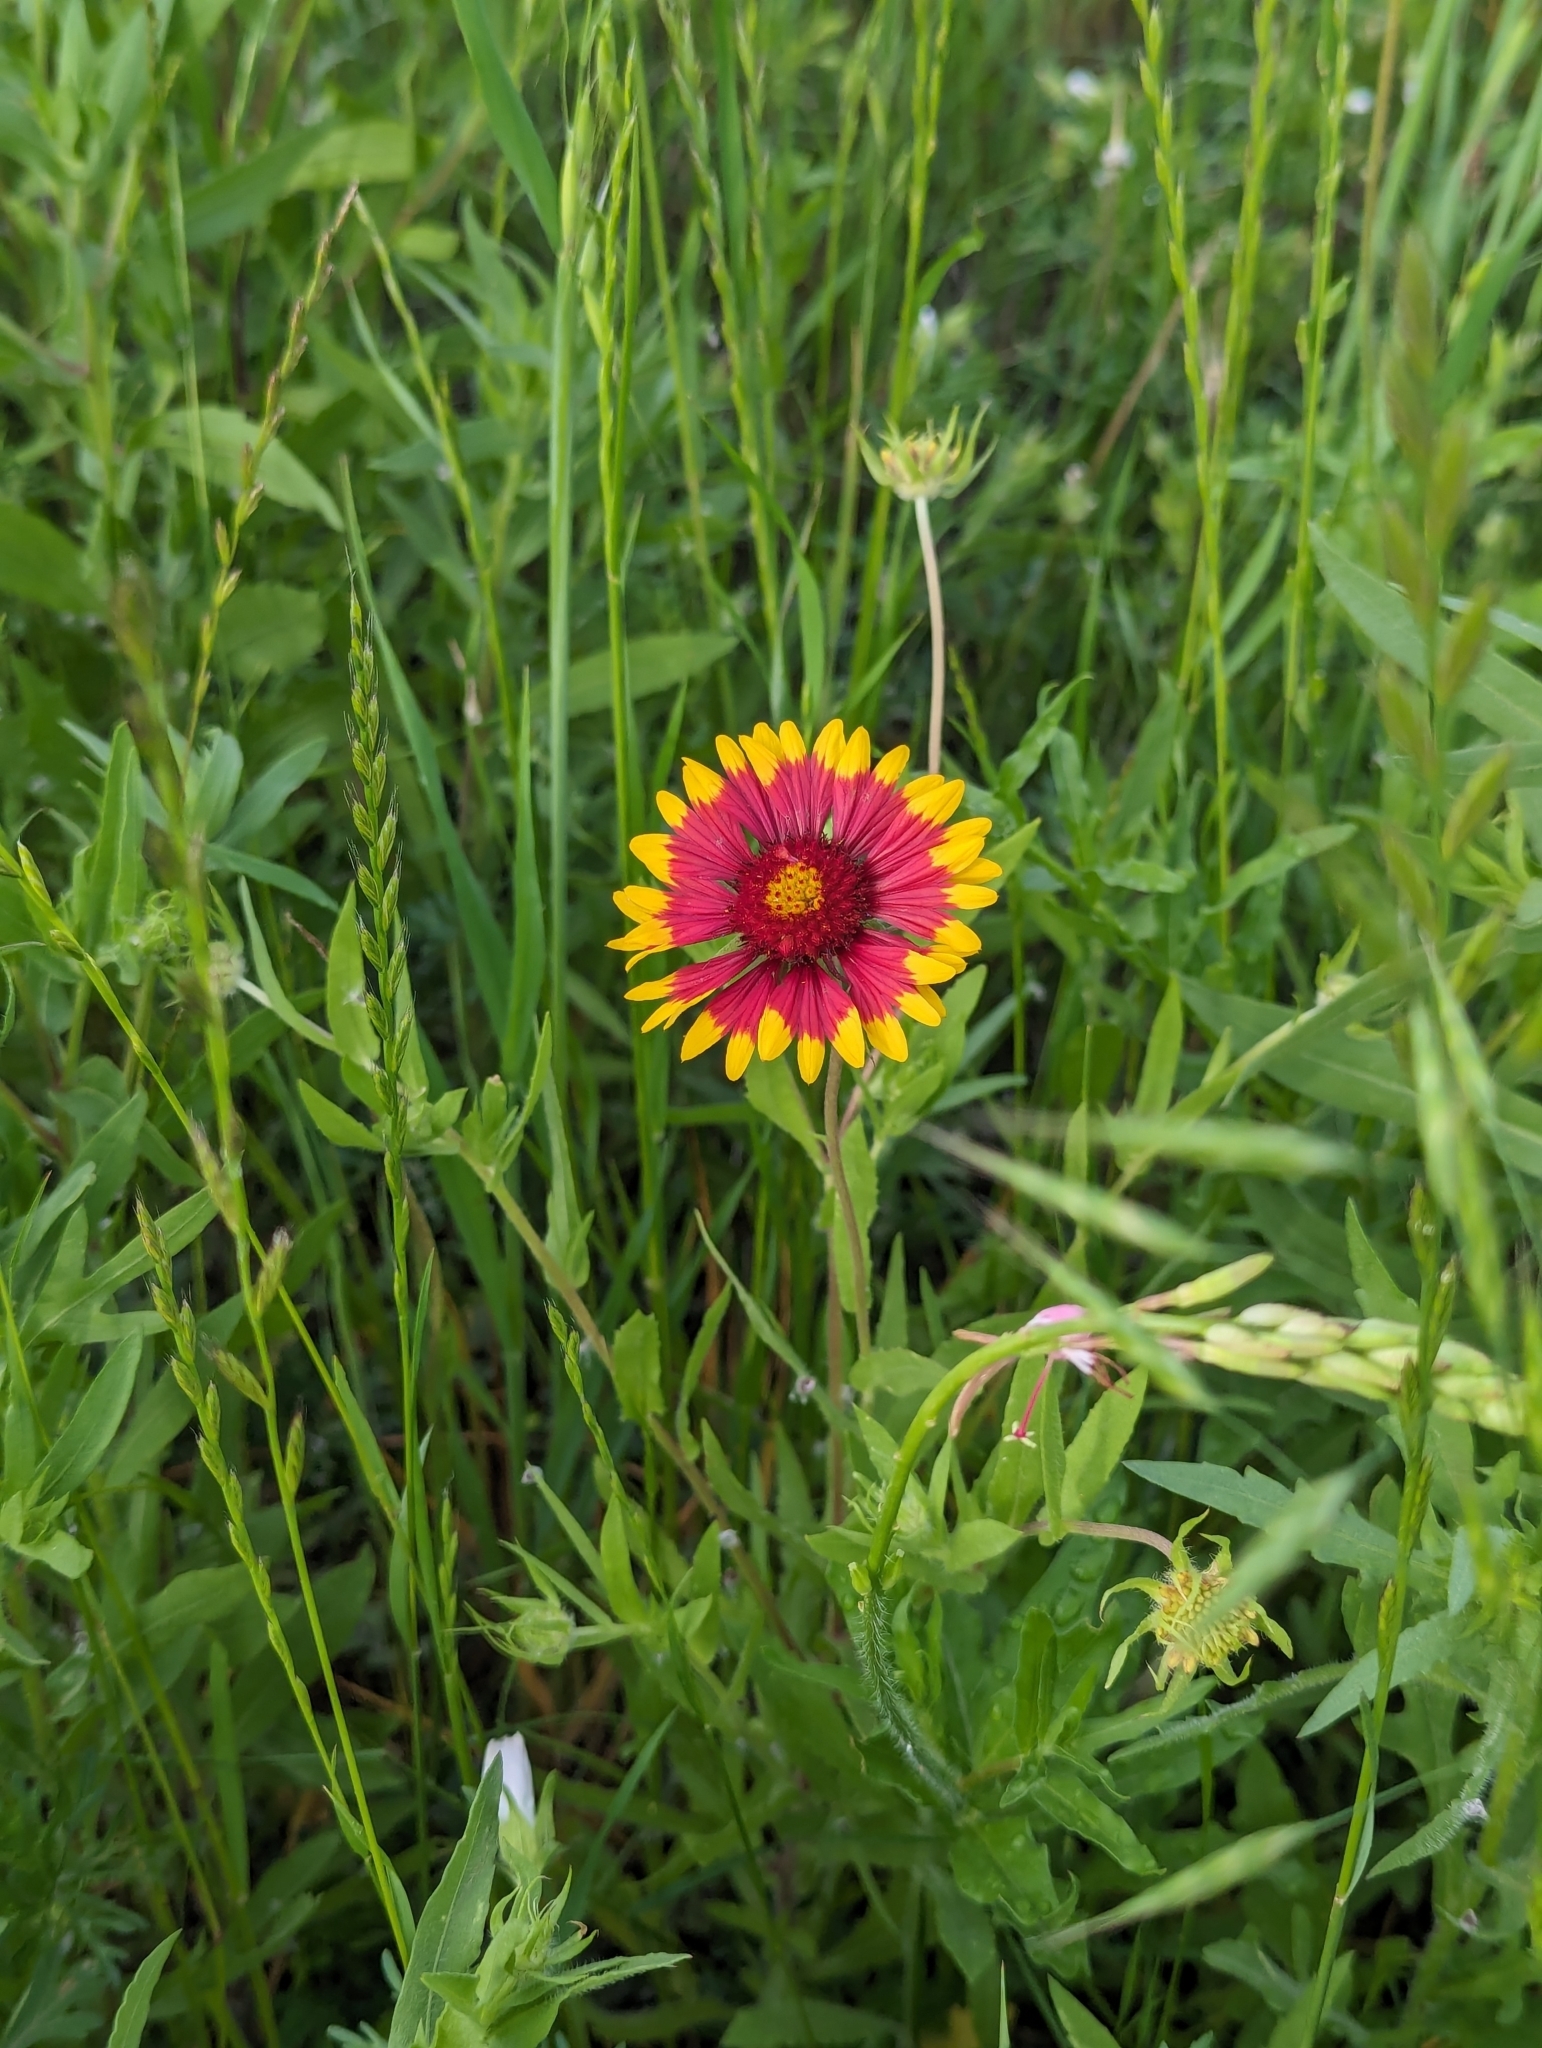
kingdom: Plantae
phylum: Tracheophyta
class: Magnoliopsida
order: Asterales
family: Asteraceae
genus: Gaillardia
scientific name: Gaillardia pulchella
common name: Firewheel
